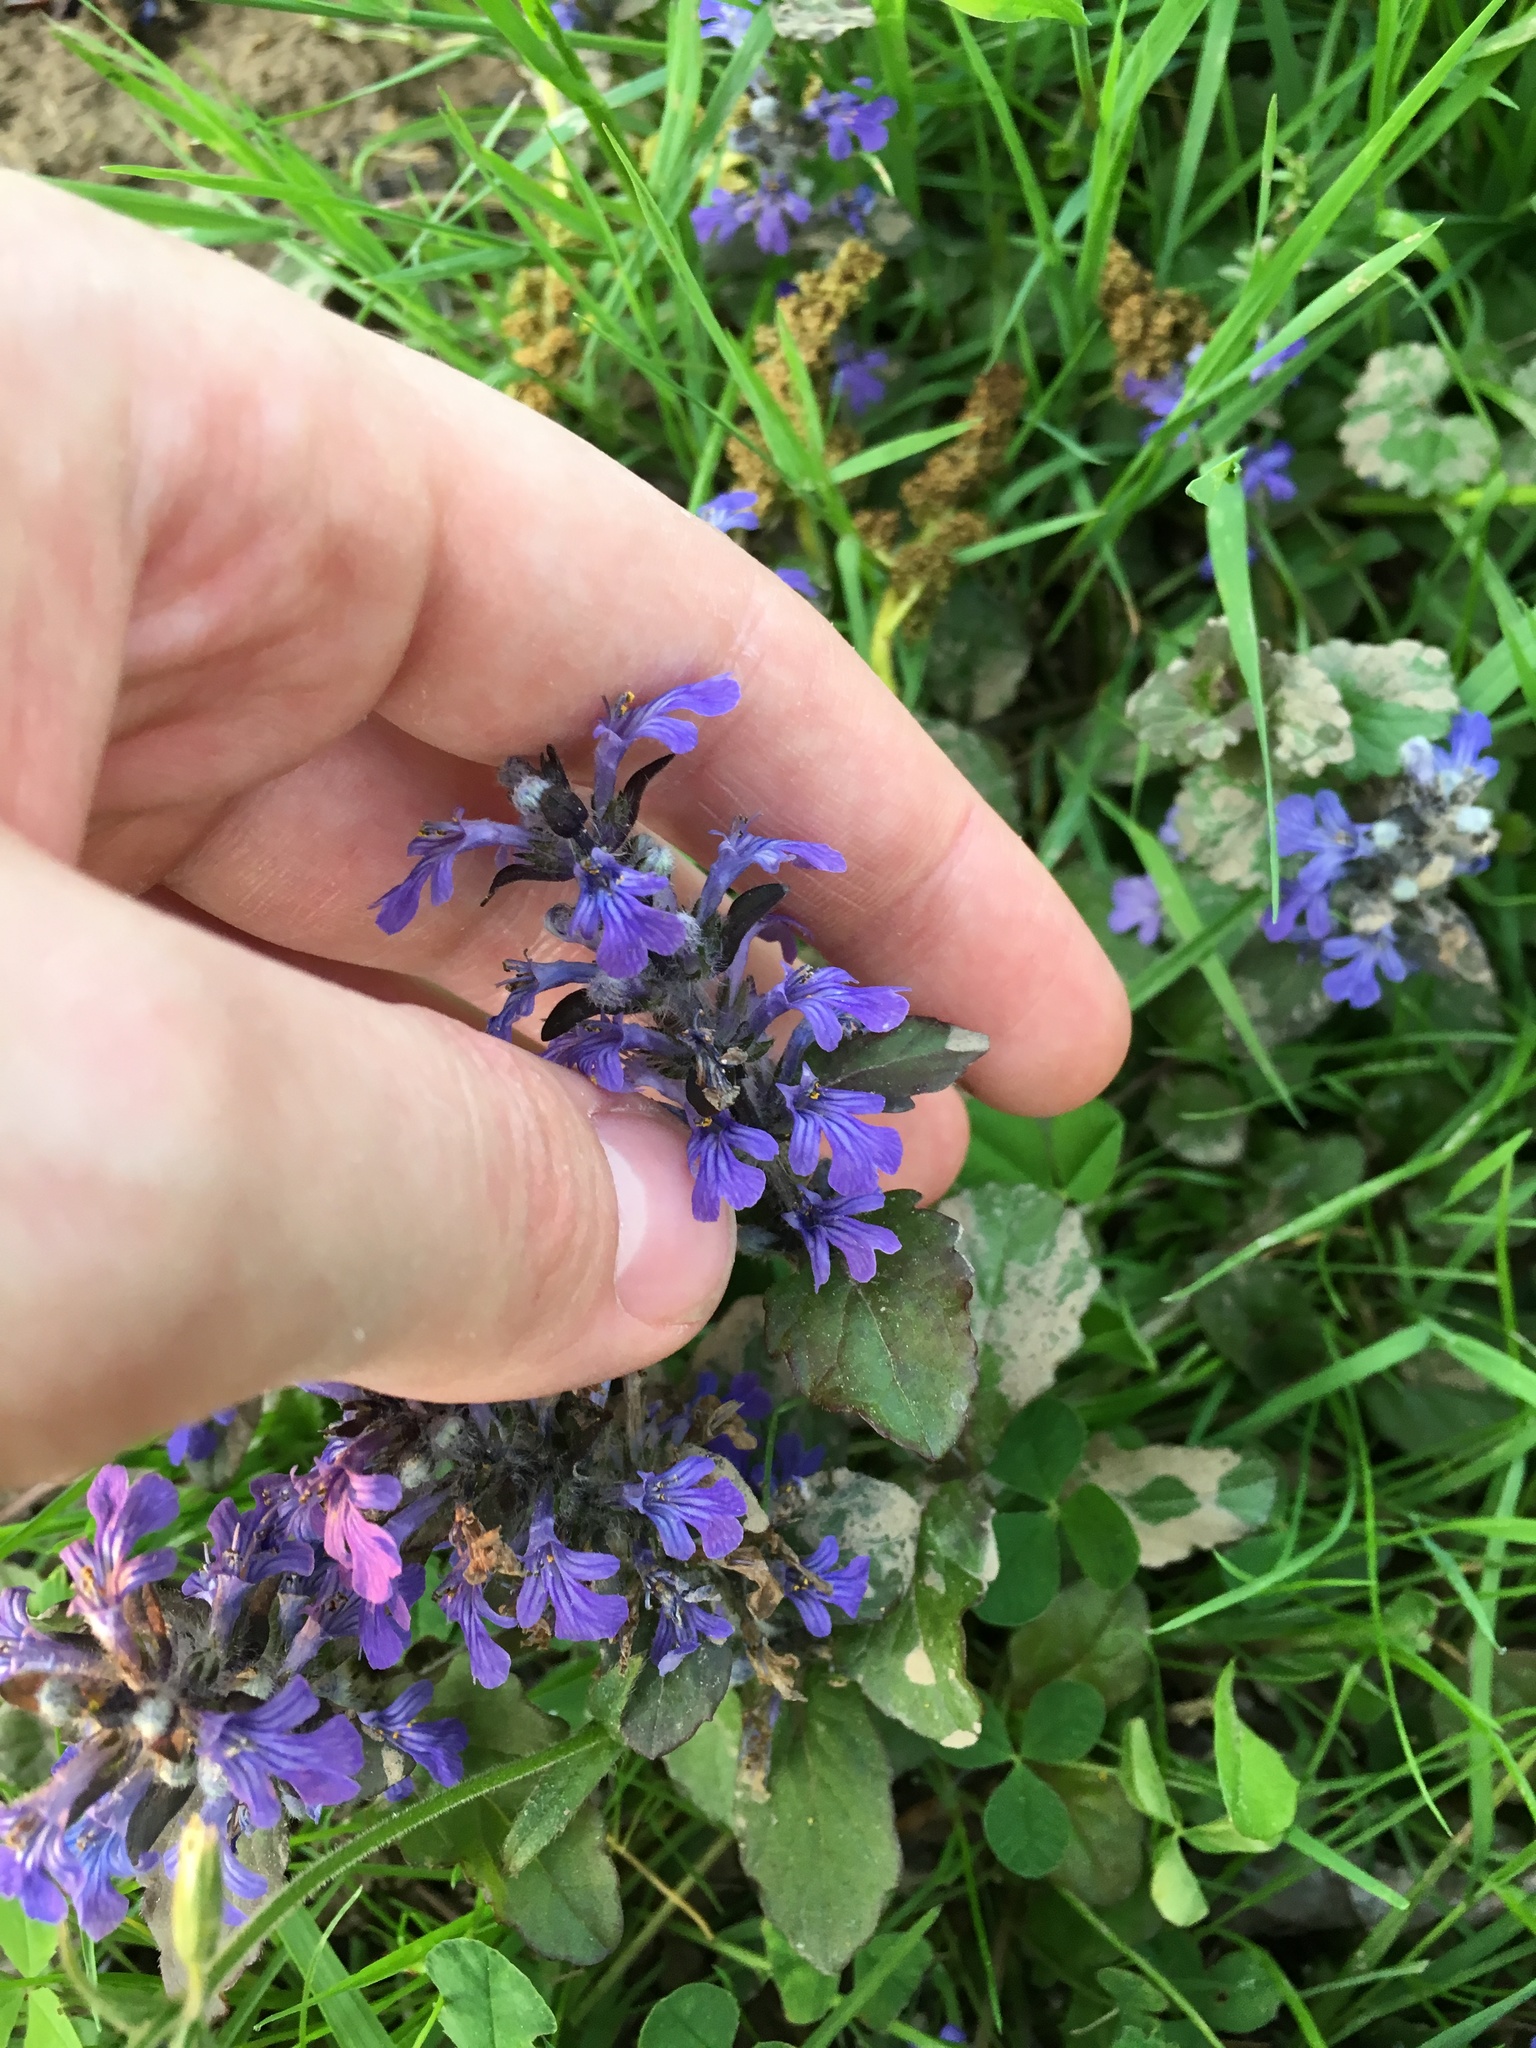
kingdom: Plantae
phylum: Tracheophyta
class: Magnoliopsida
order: Lamiales
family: Lamiaceae
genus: Ajuga
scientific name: Ajuga reptans
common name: Bugle
